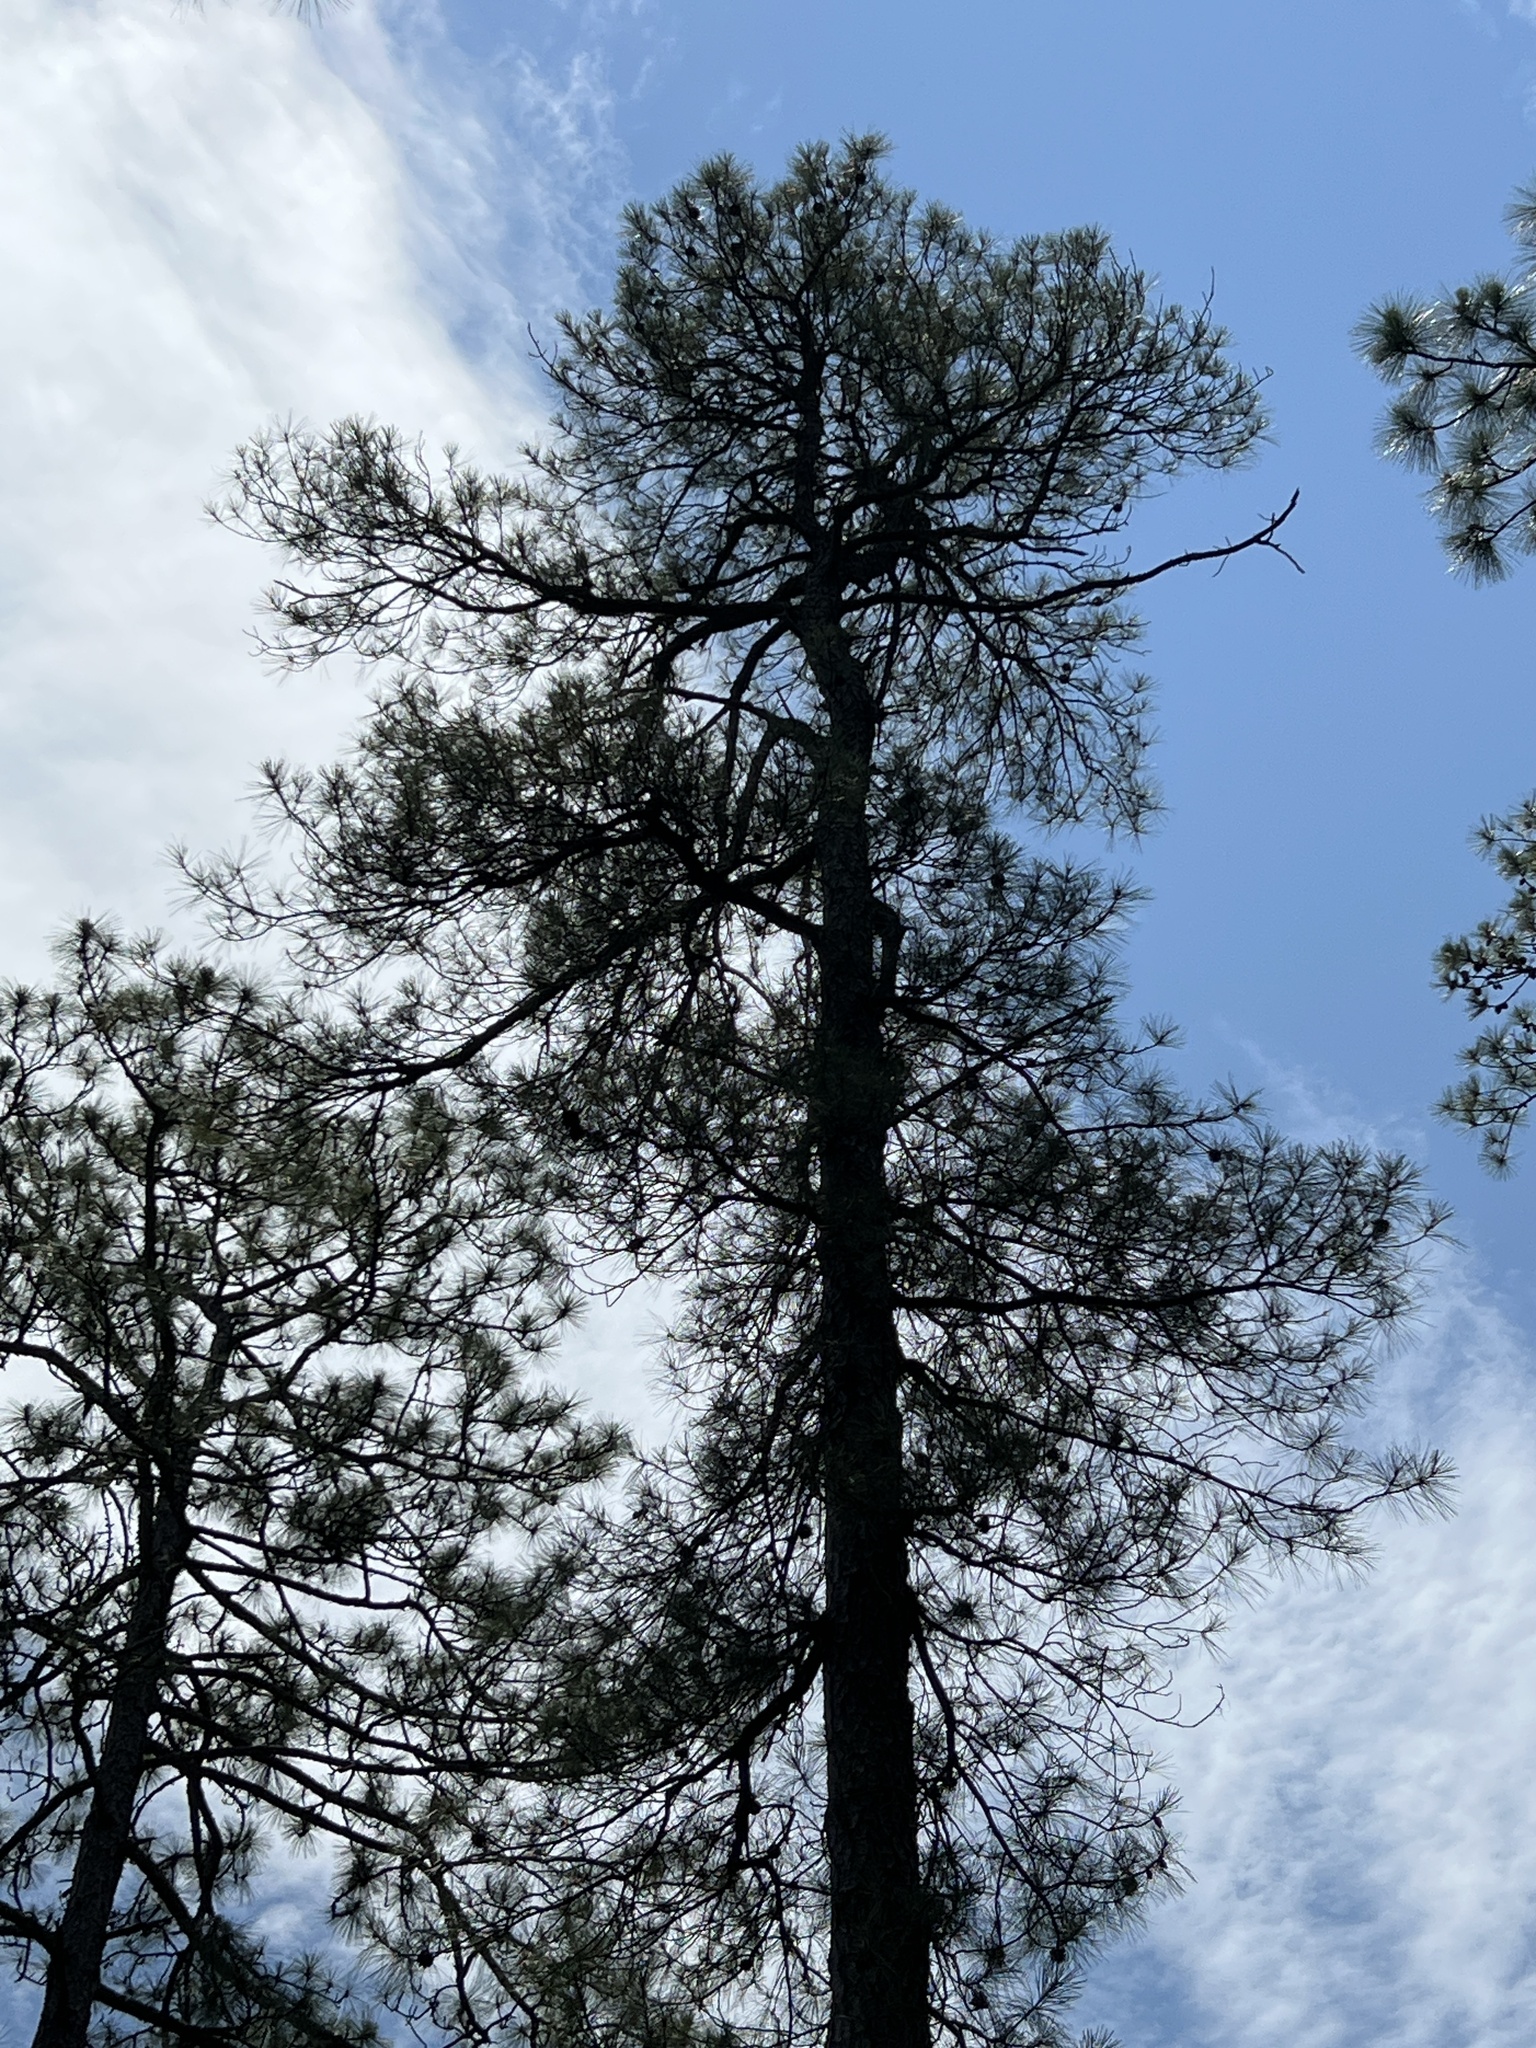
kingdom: Plantae
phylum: Tracheophyta
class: Pinopsida
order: Pinales
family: Pinaceae
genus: Pinus
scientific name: Pinus serotina
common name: Marsh pine
